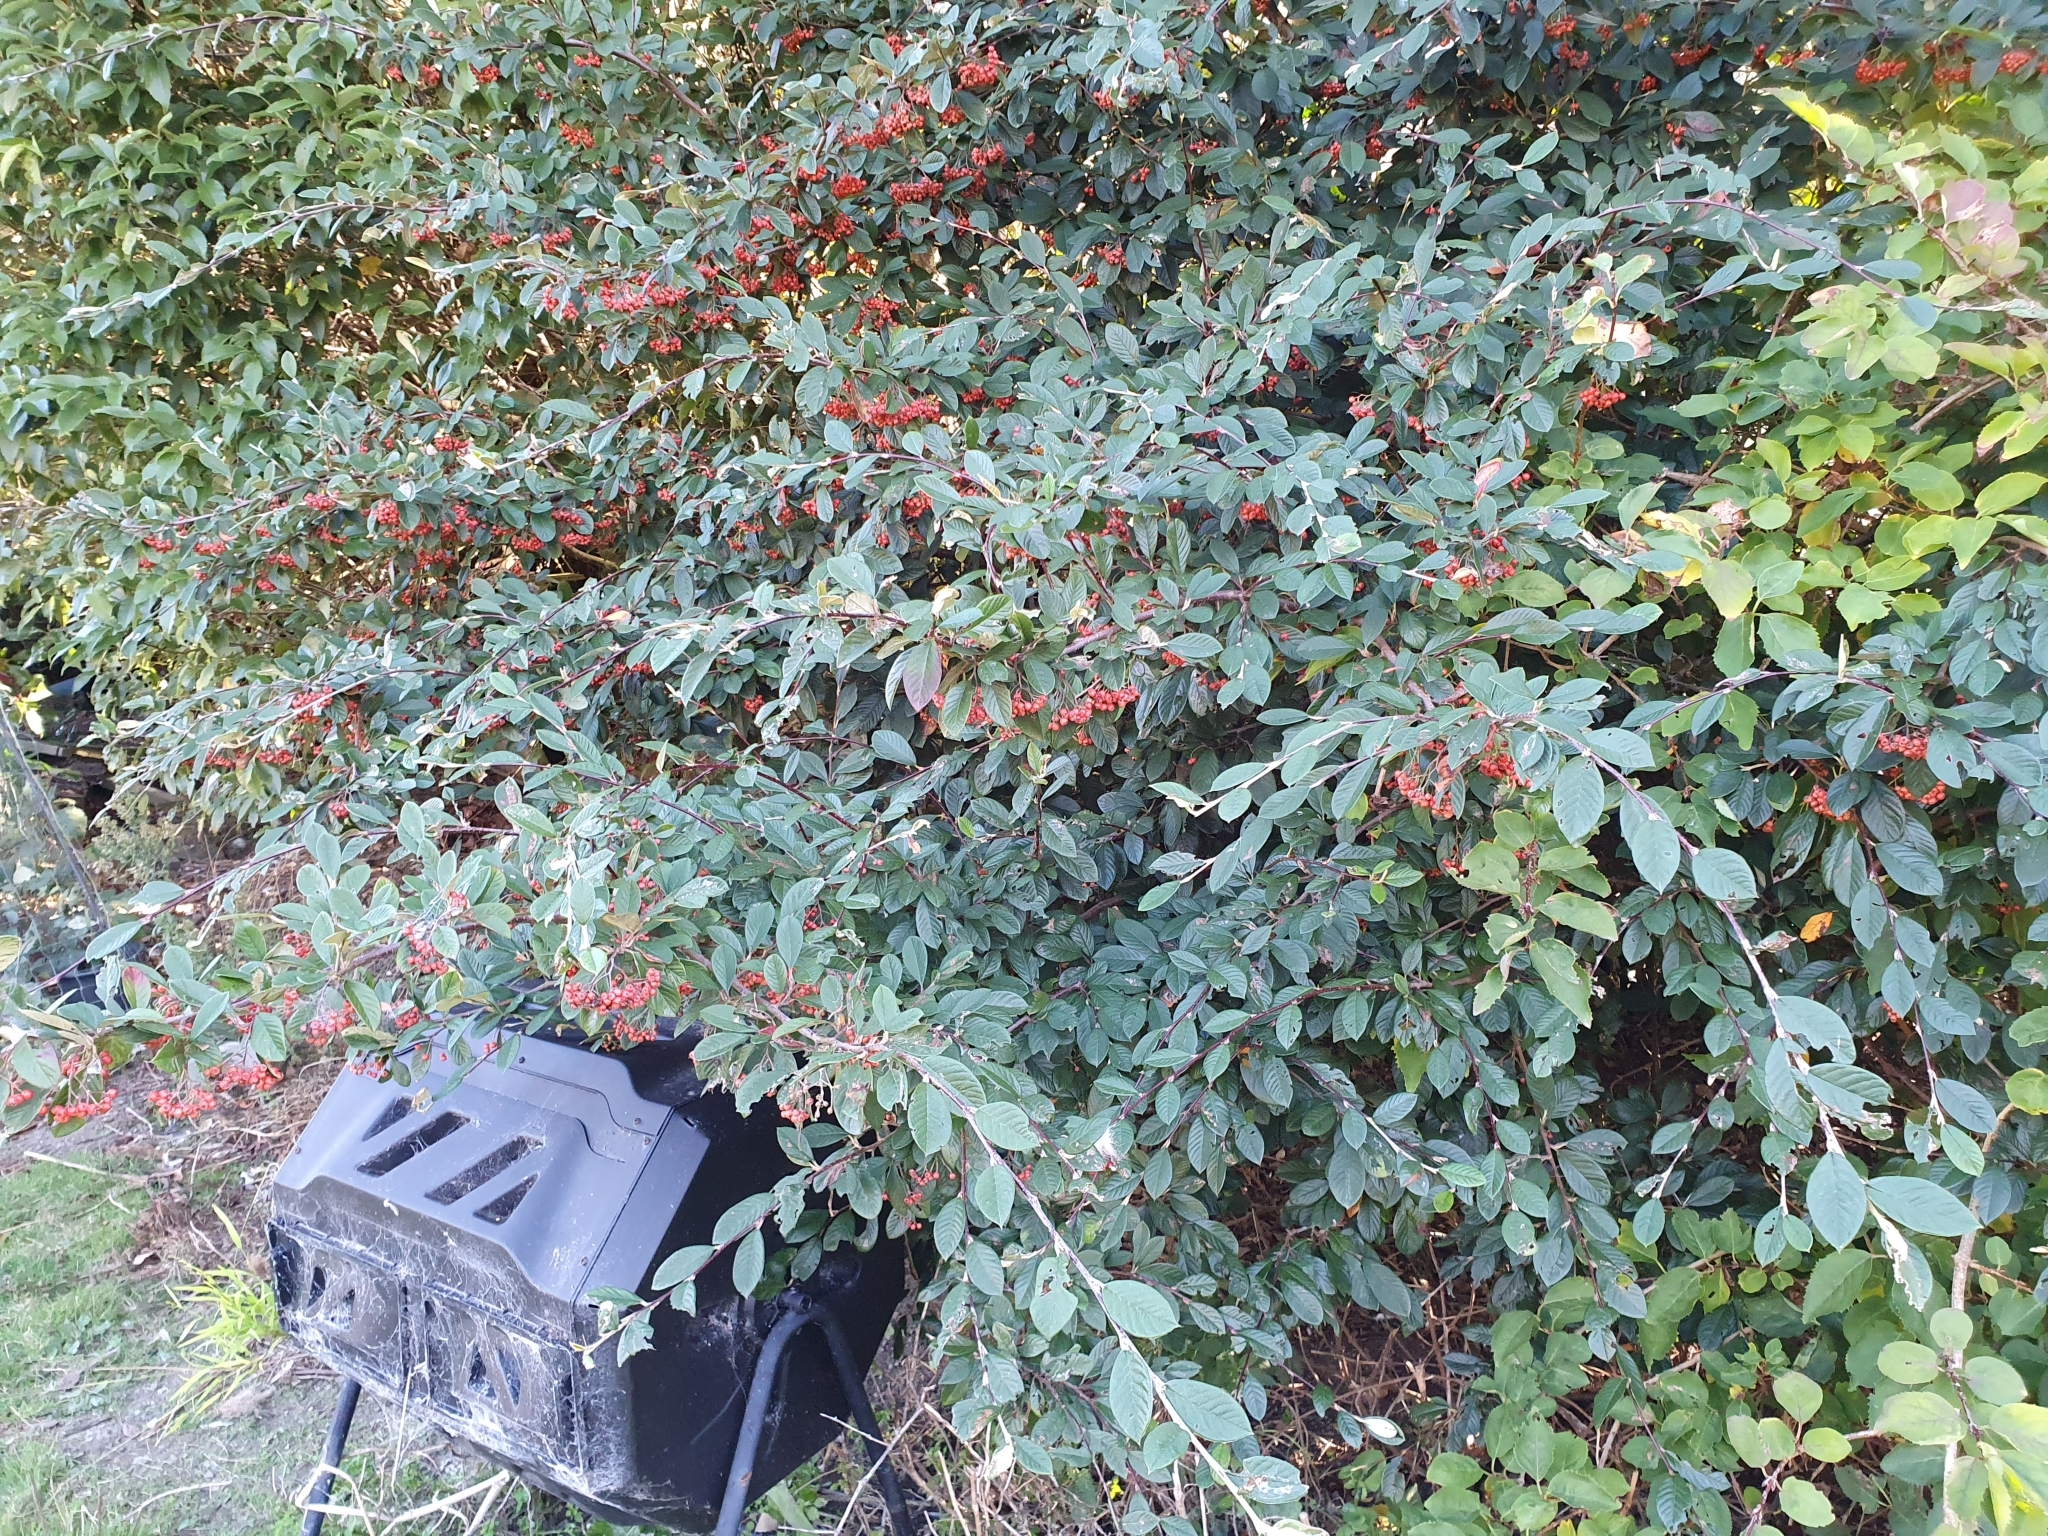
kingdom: Plantae
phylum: Tracheophyta
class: Magnoliopsida
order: Rosales
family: Rosaceae
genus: Cotoneaster
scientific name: Cotoneaster coriaceus
